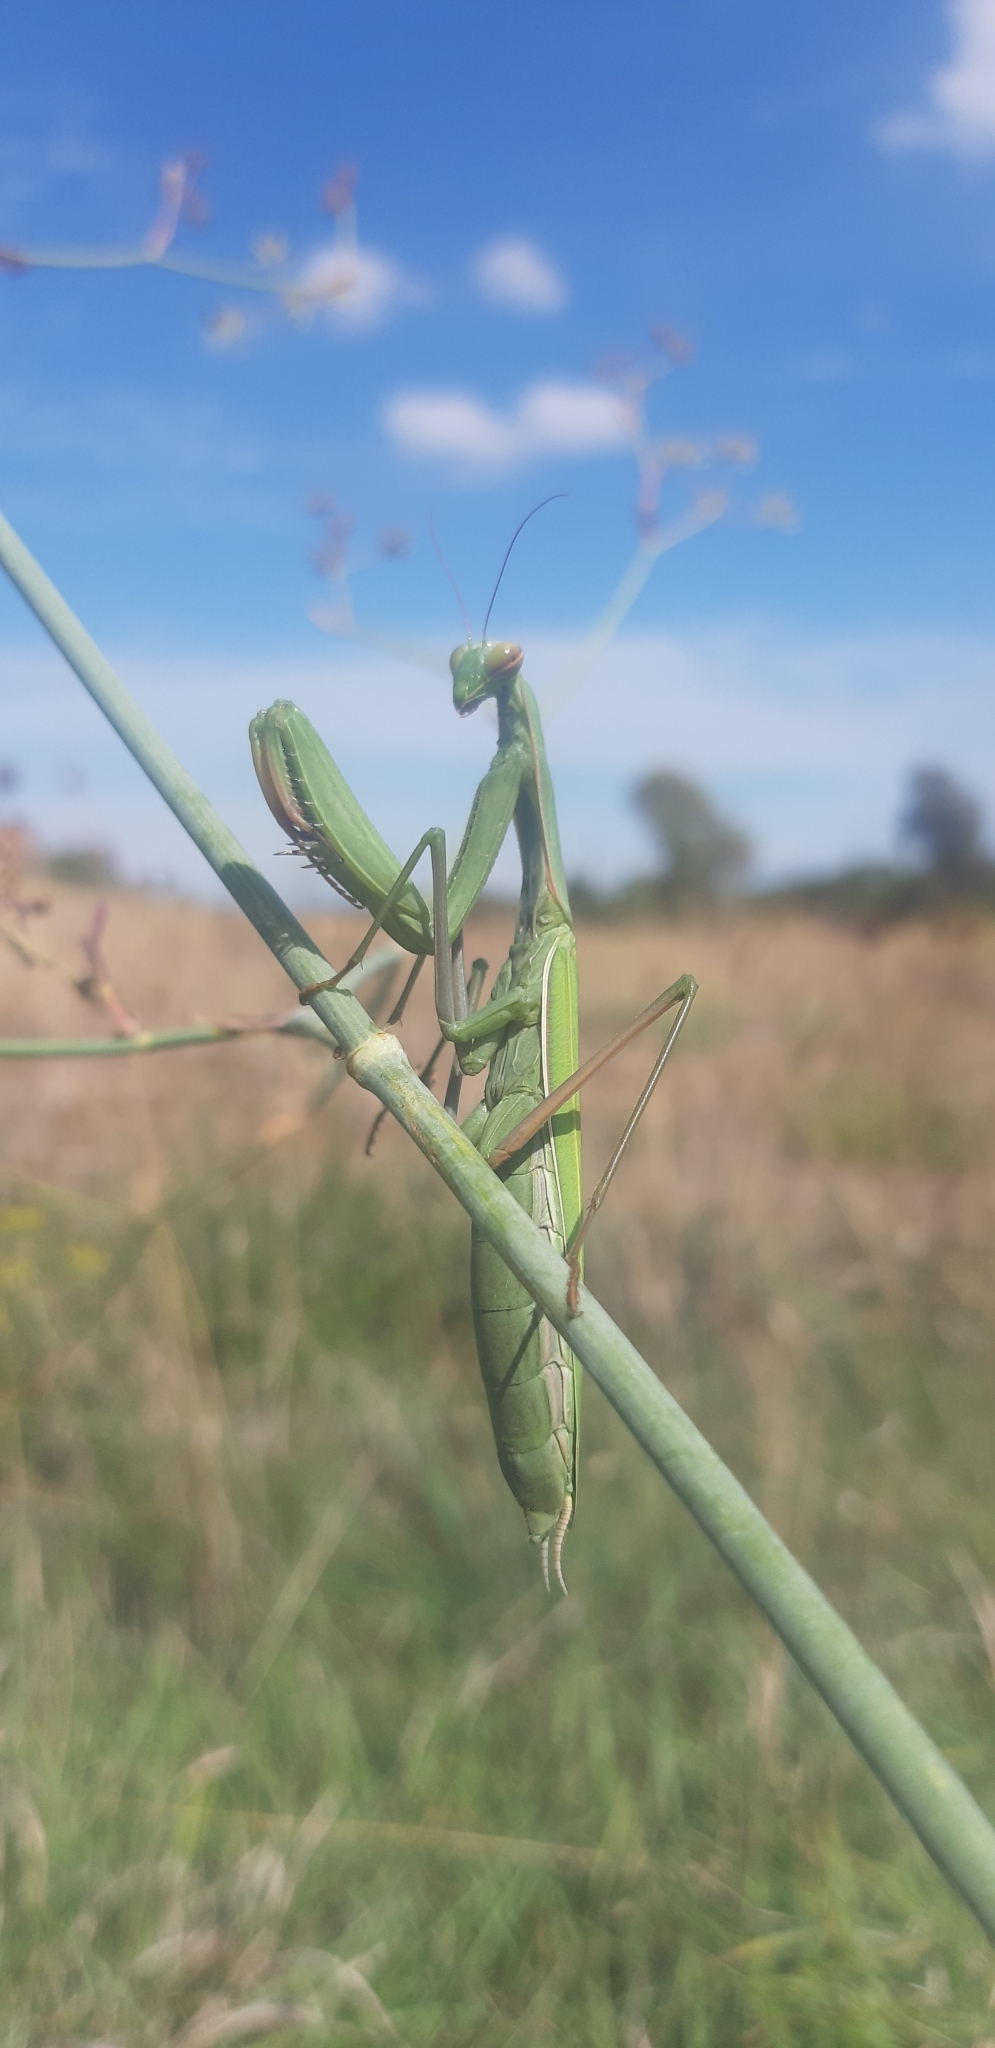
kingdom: Animalia
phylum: Arthropoda
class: Insecta
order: Mantodea
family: Mantidae
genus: Mantis
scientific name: Mantis religiosa
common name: Praying mantis
